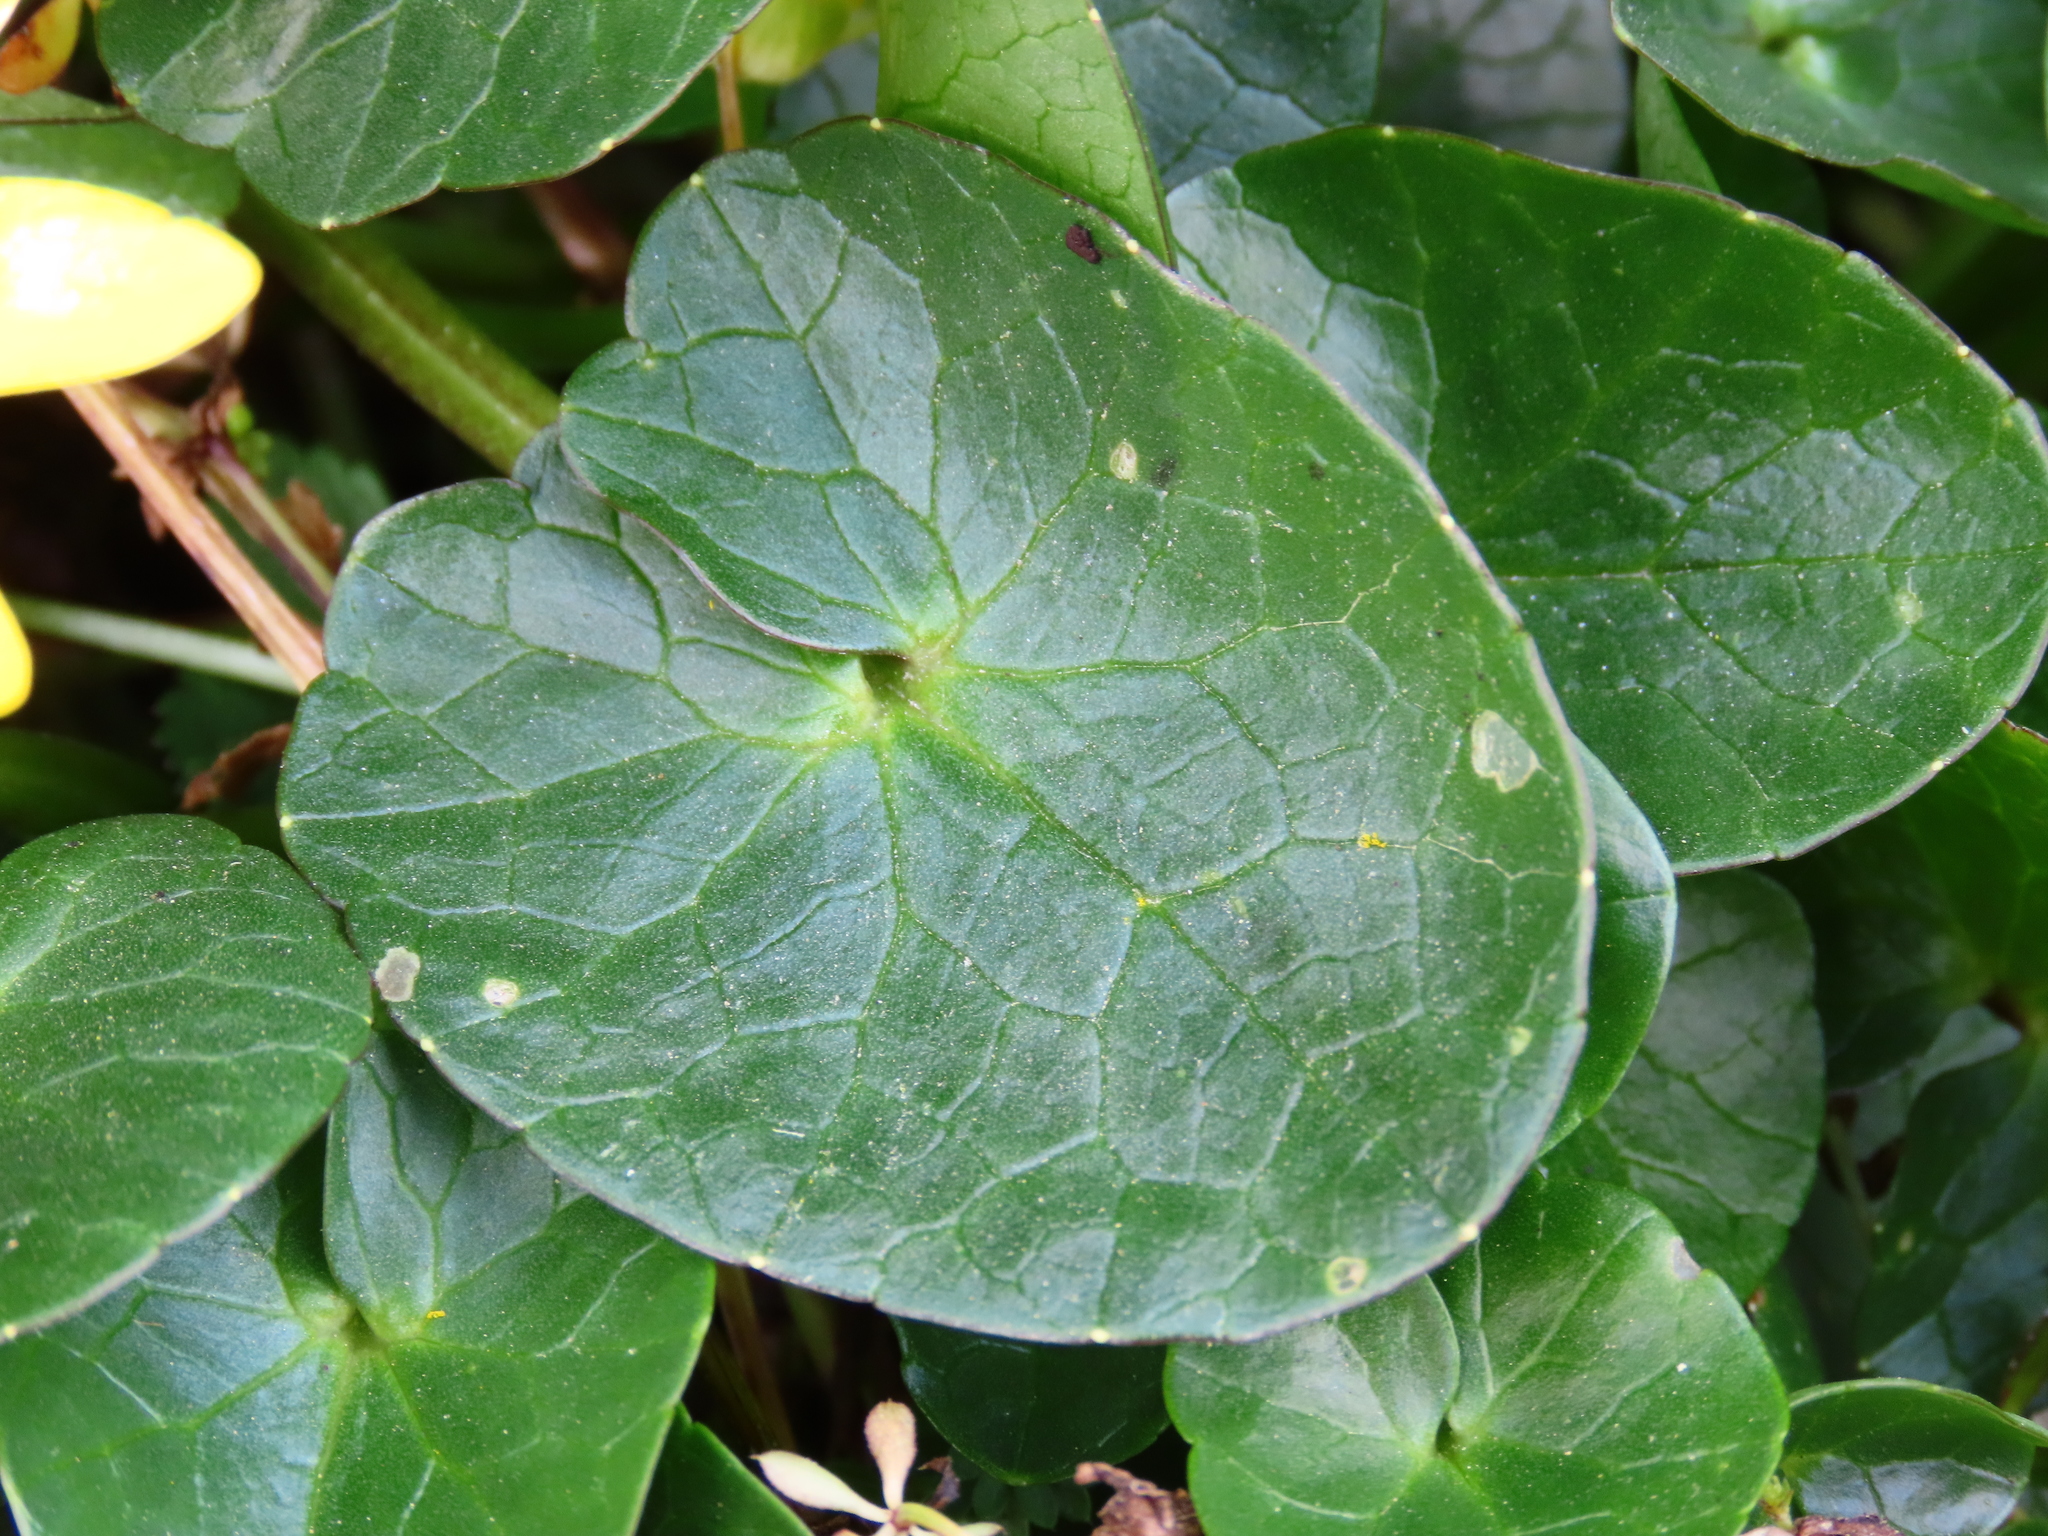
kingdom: Plantae
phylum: Tracheophyta
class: Magnoliopsida
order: Ranunculales
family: Ranunculaceae
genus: Ficaria
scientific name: Ficaria verna
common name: Lesser celandine
